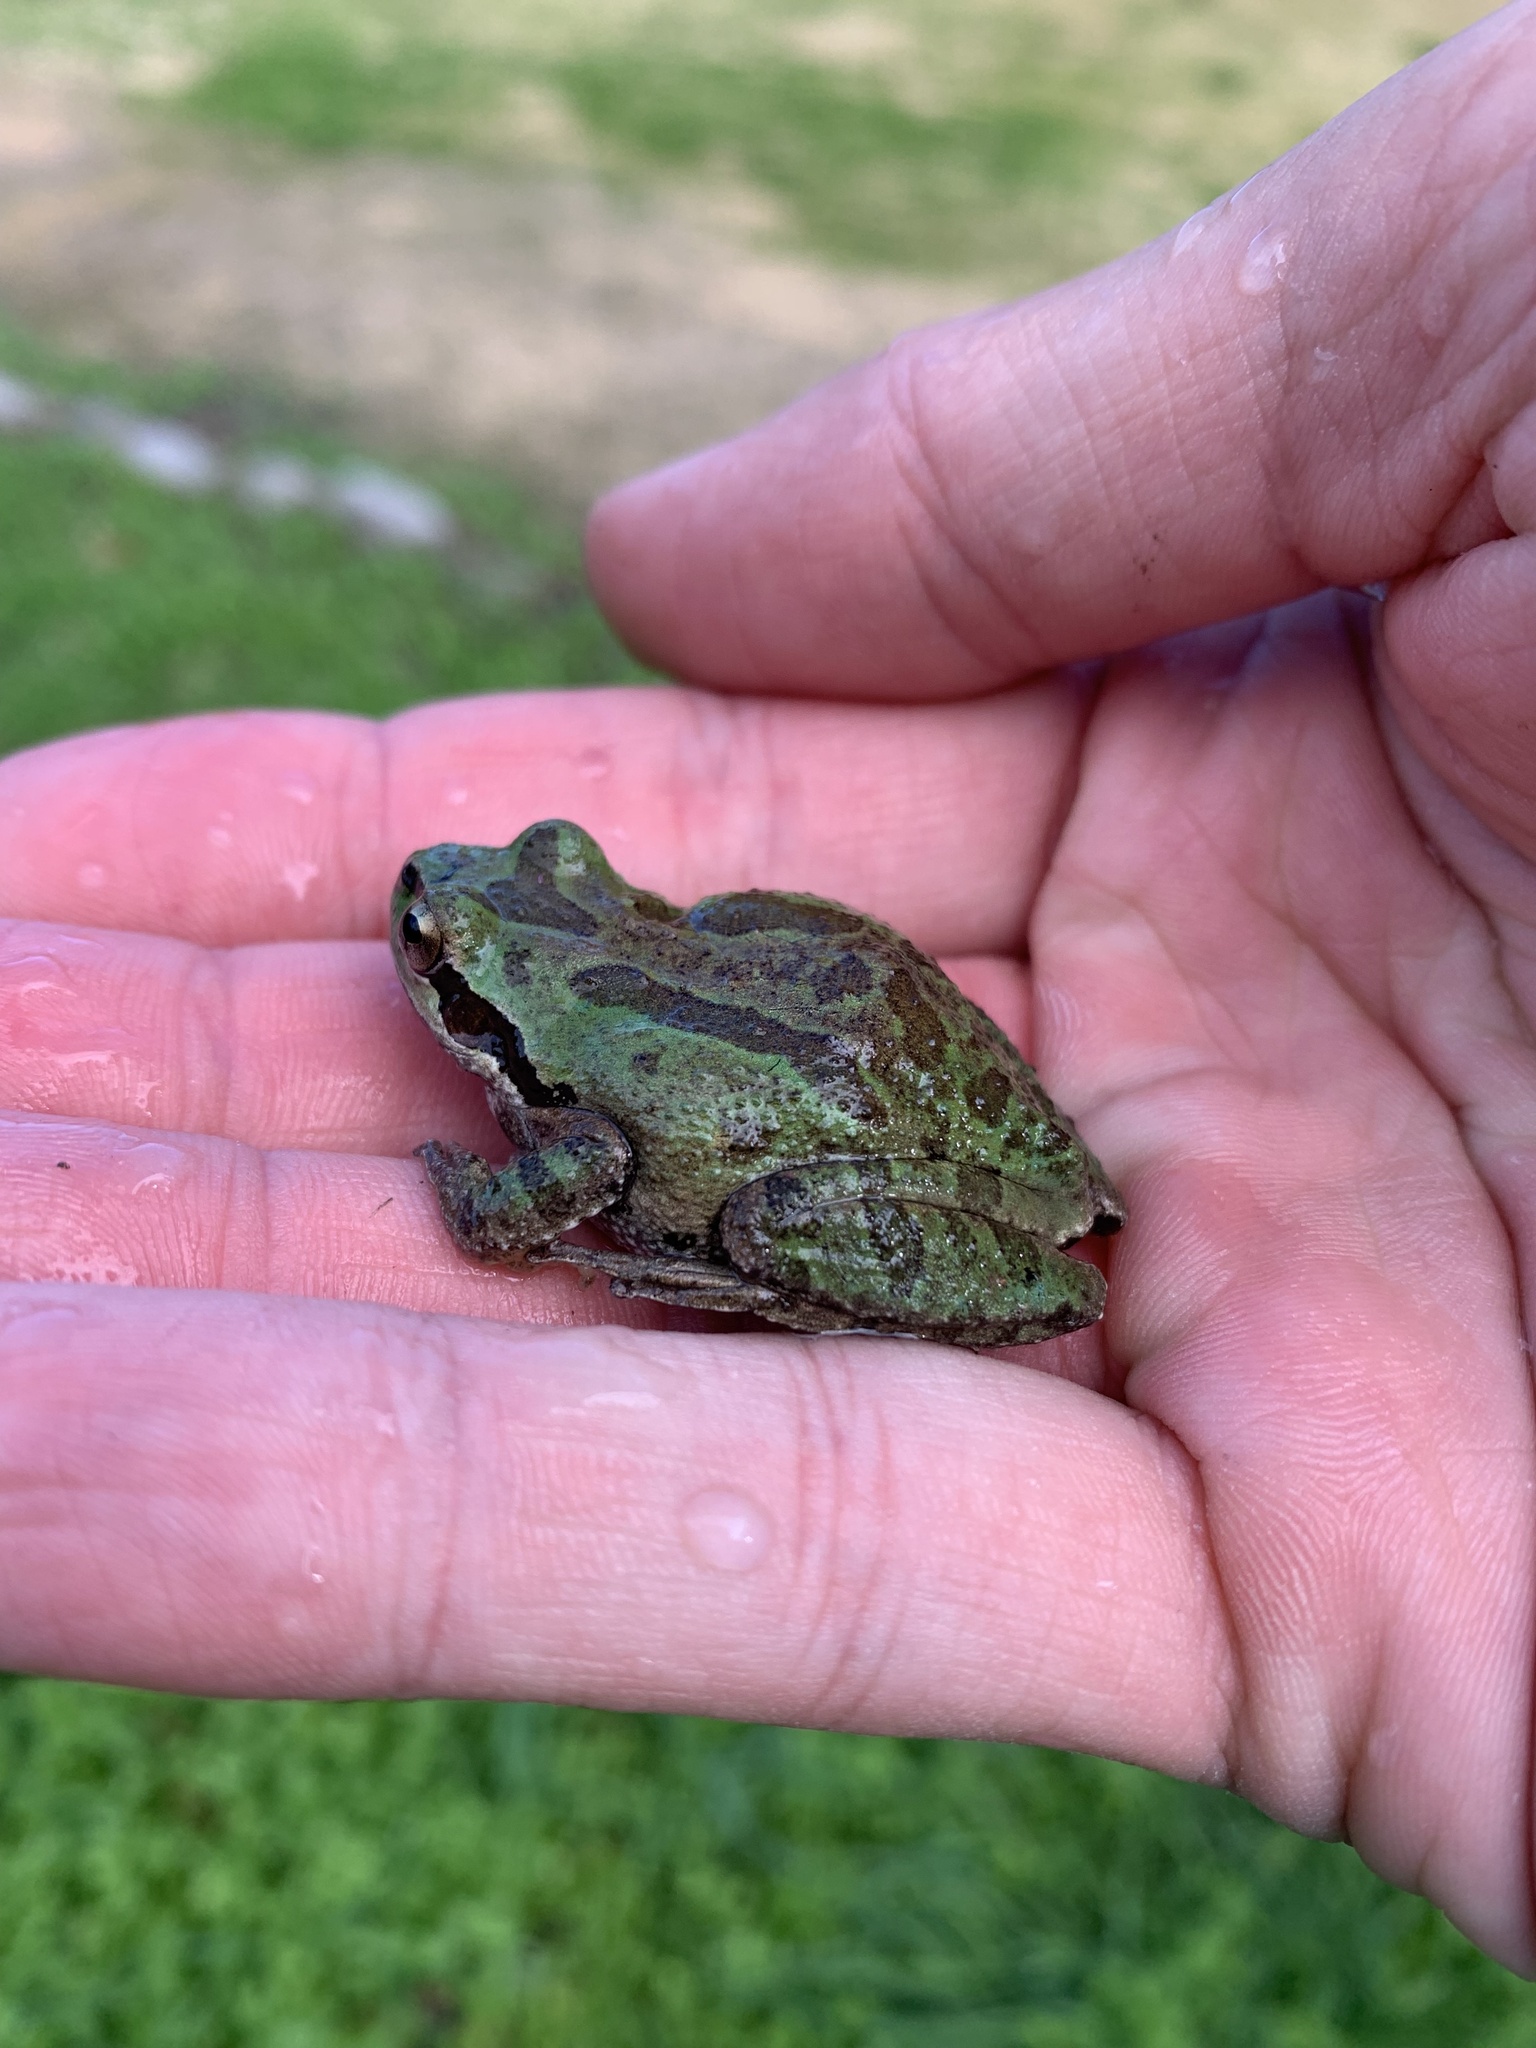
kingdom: Animalia
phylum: Chordata
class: Amphibia
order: Anura
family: Hylidae
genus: Pseudacris
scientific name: Pseudacris regilla
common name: Pacific chorus frog
